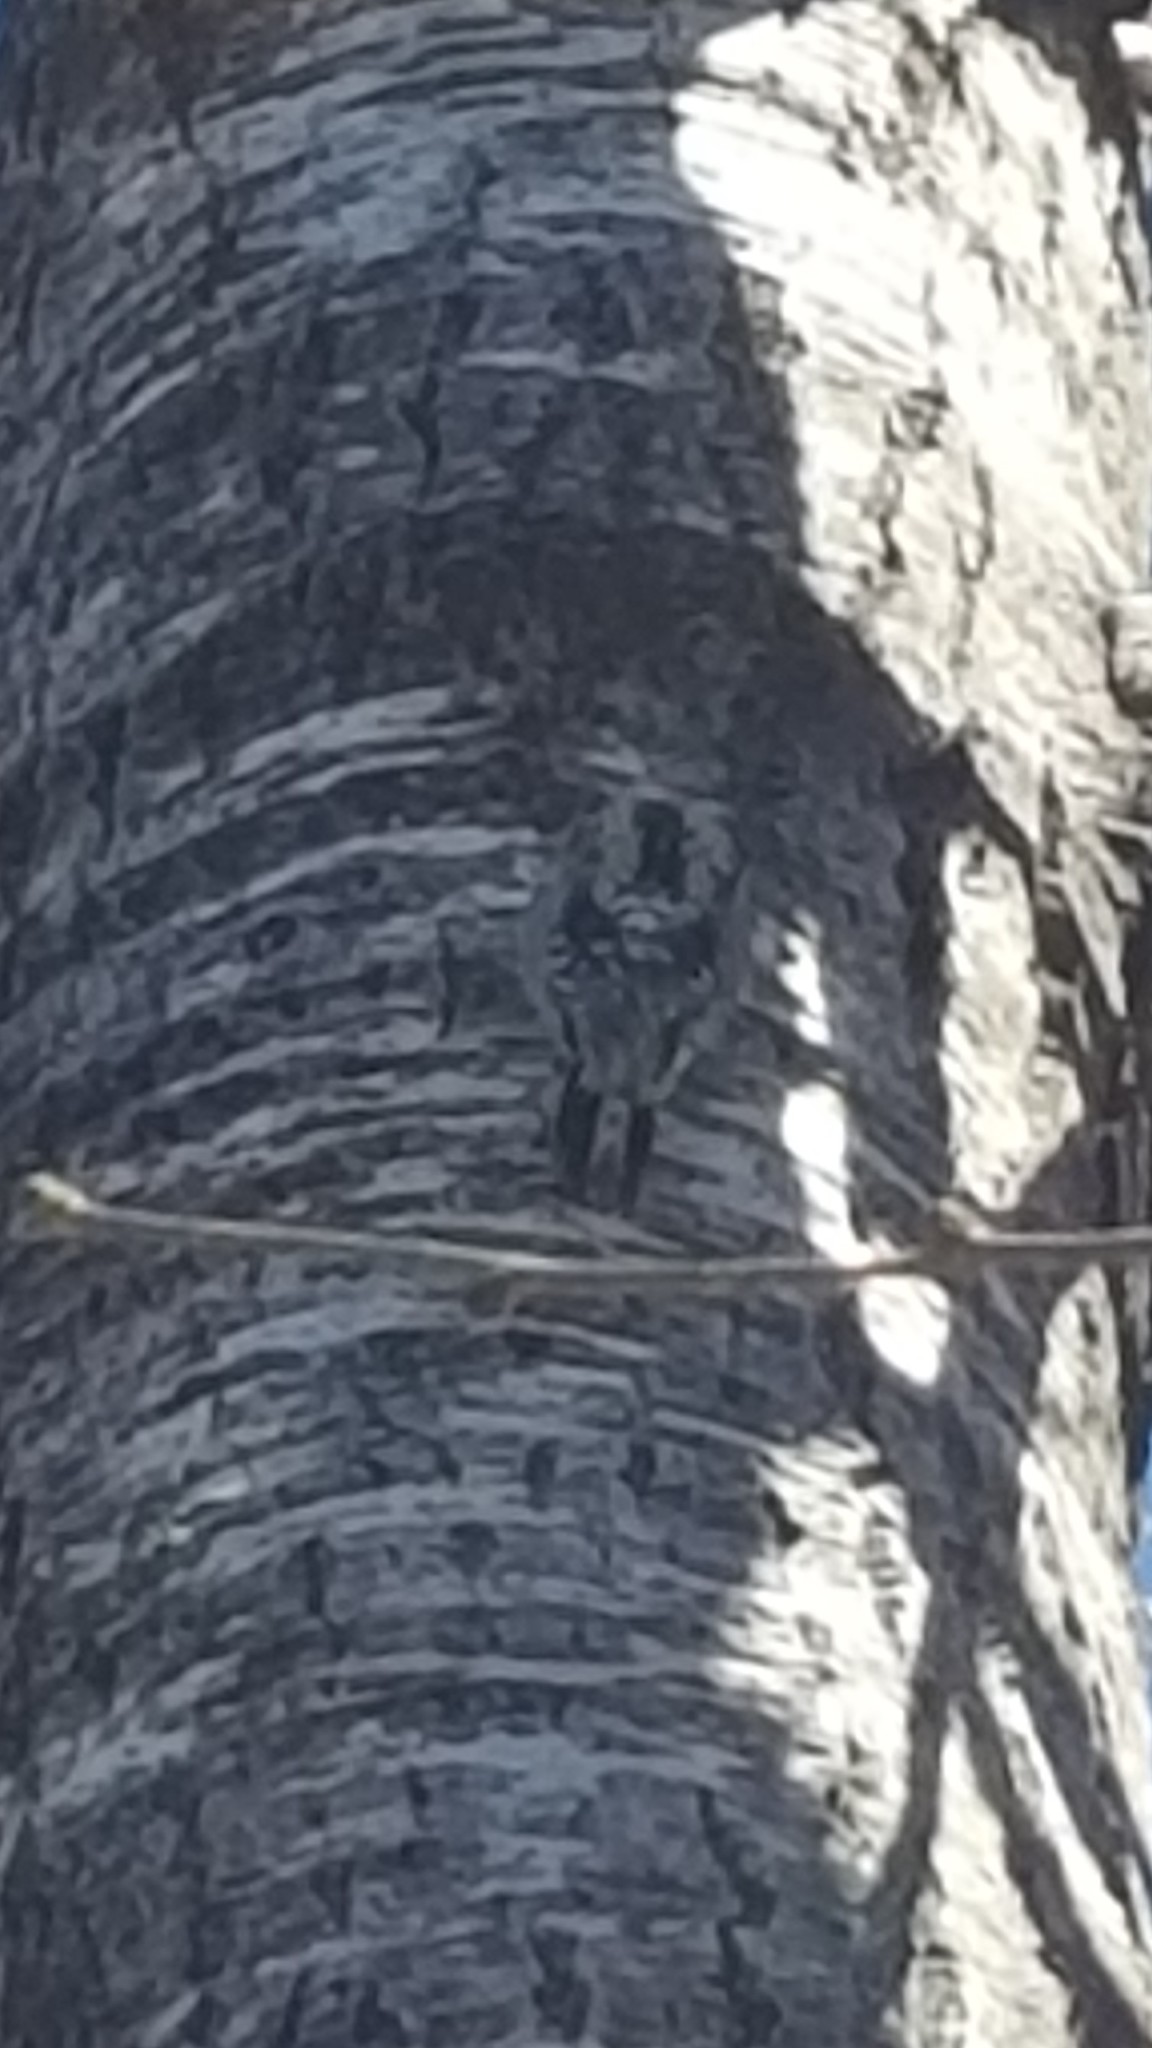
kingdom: Animalia
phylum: Chordata
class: Aves
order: Piciformes
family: Picidae
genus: Sphyrapicus
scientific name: Sphyrapicus varius
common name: Yellow-bellied sapsucker
